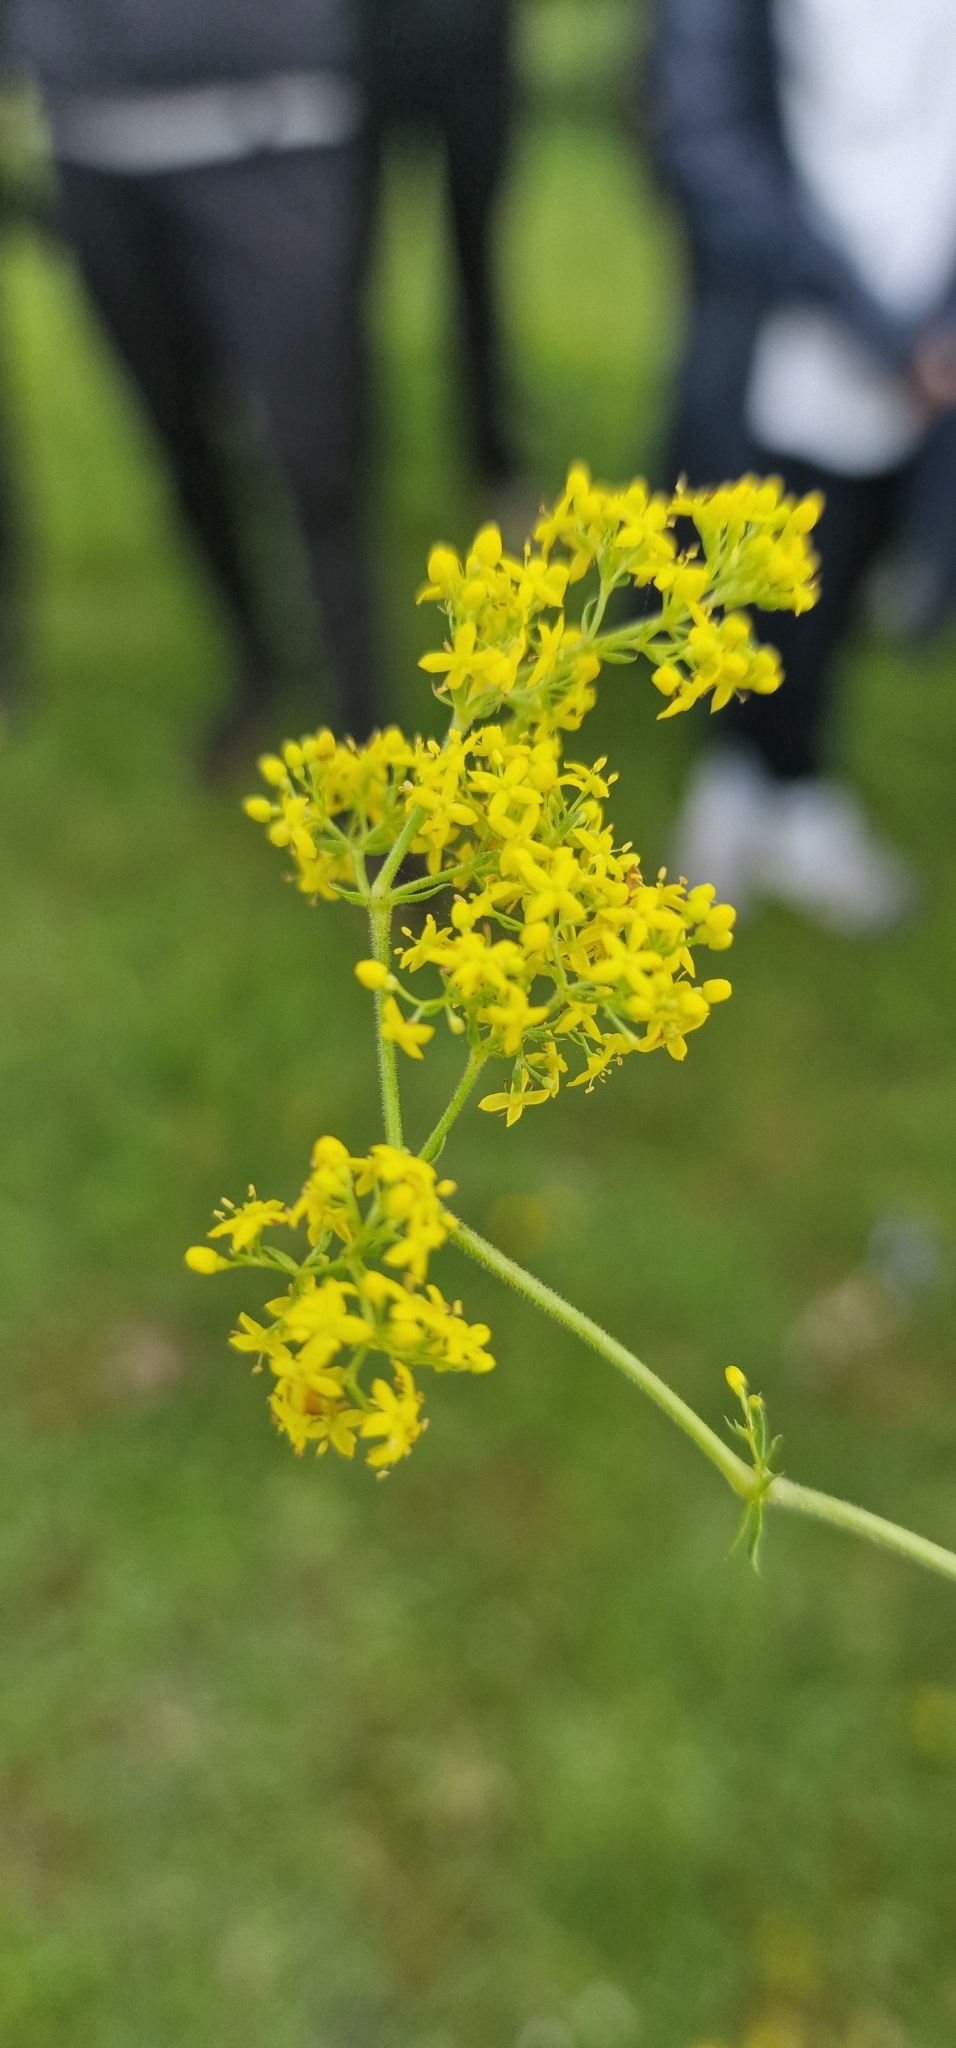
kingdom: Plantae
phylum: Tracheophyta
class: Magnoliopsida
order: Gentianales
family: Rubiaceae
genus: Galium
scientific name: Galium verum
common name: Lady's bedstraw
